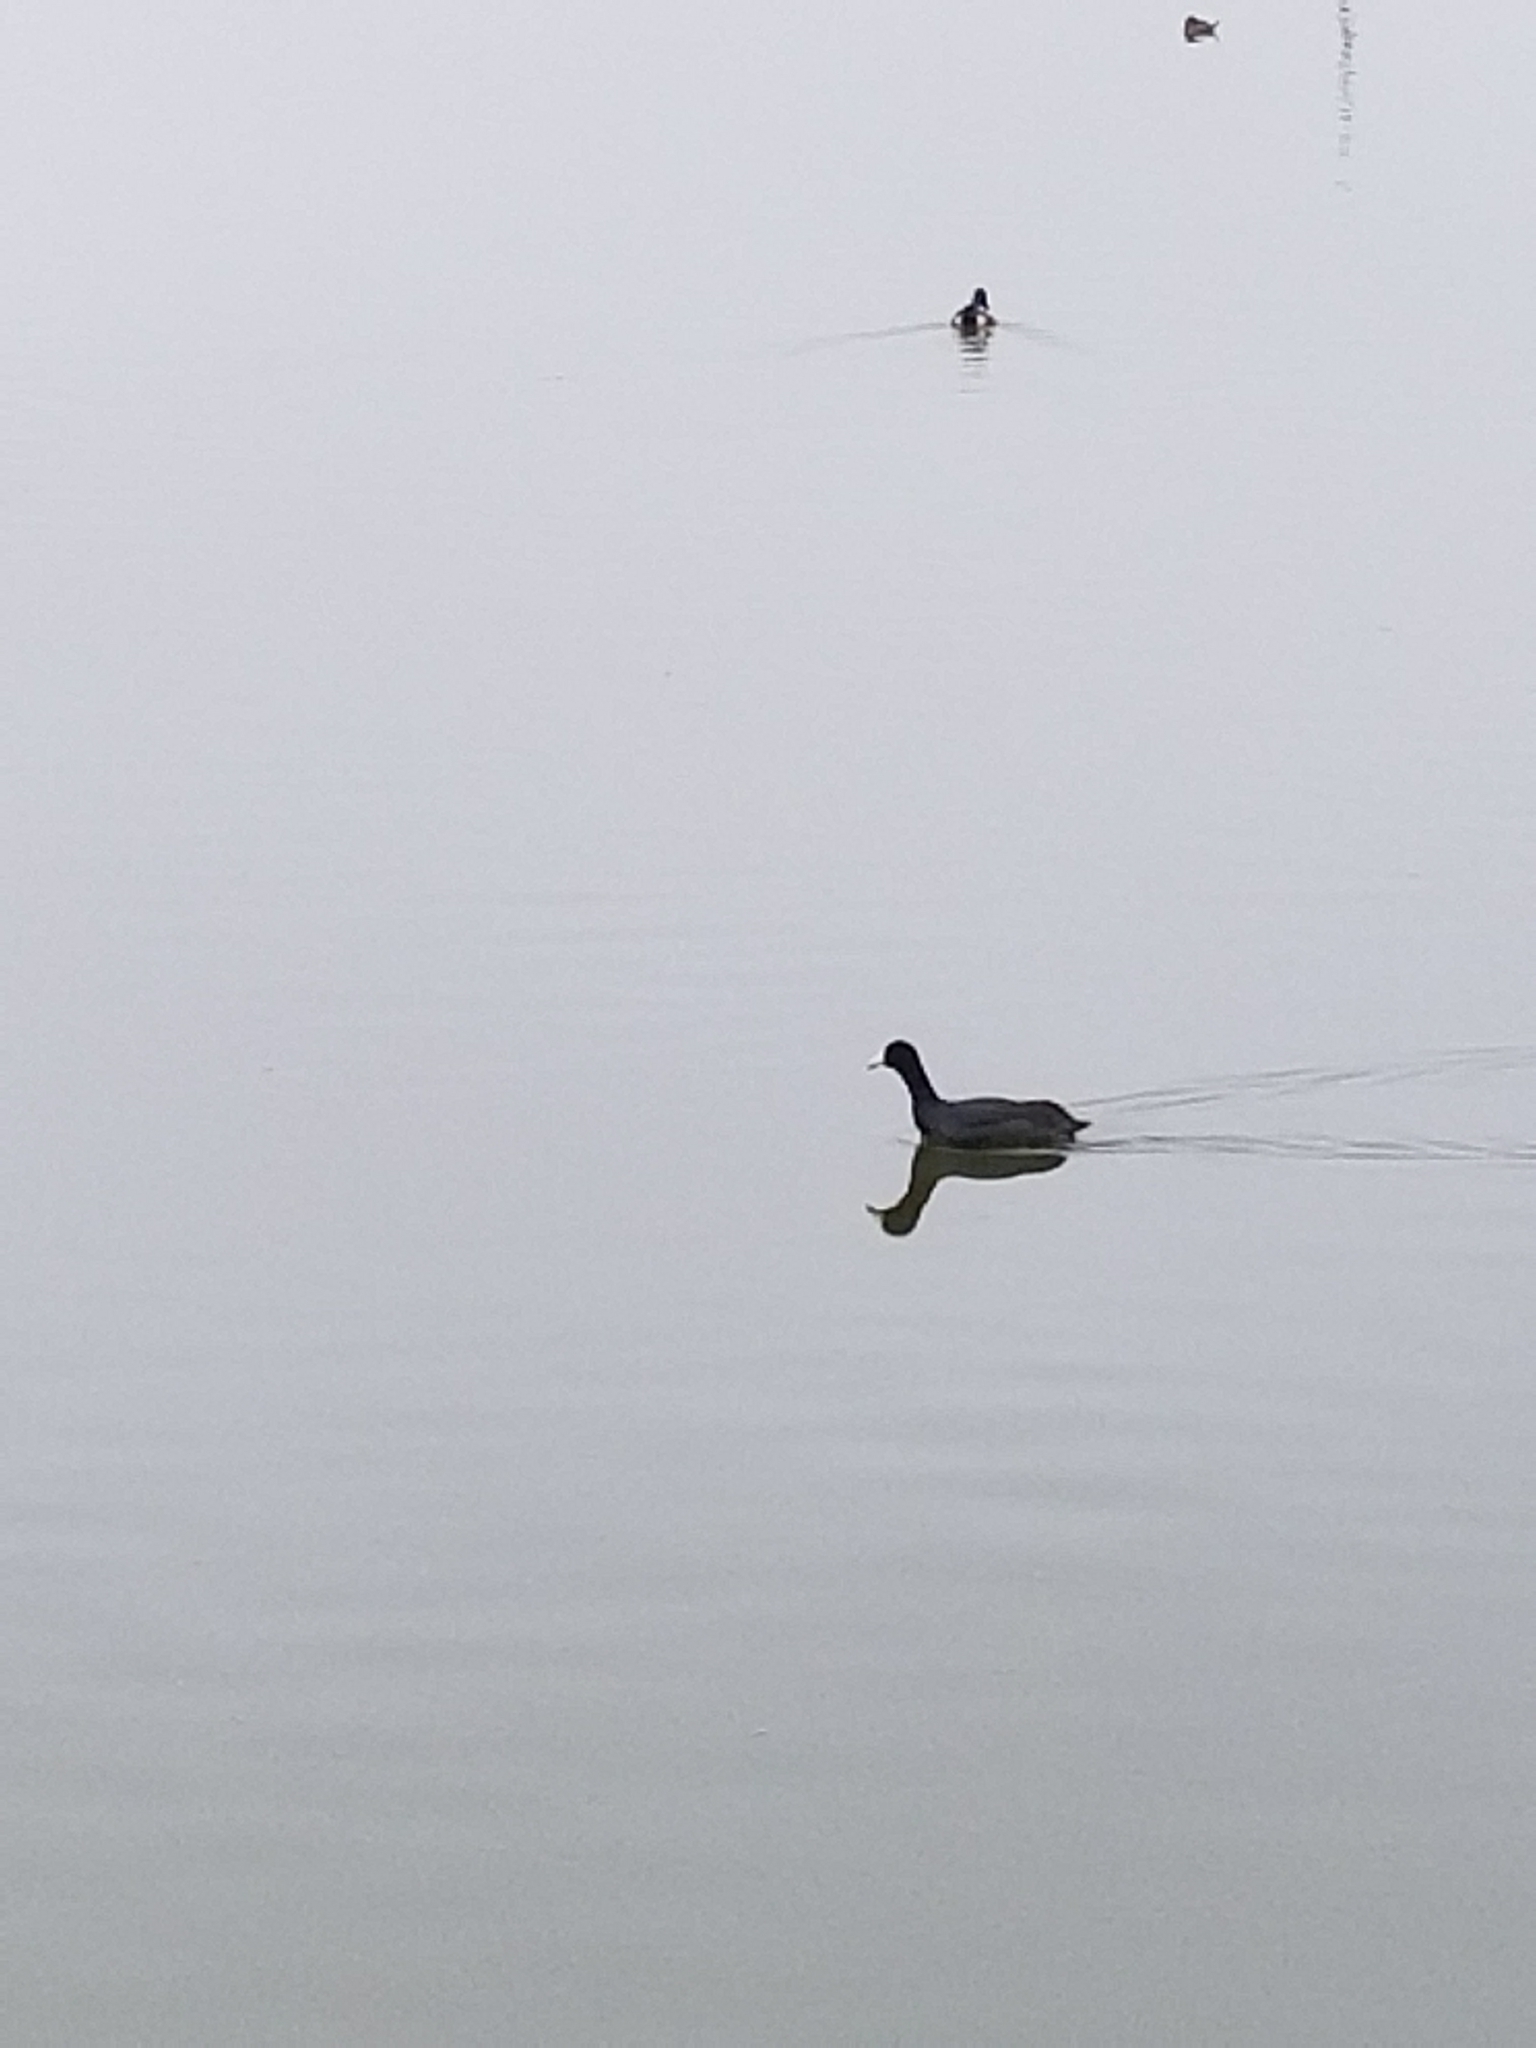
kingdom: Animalia
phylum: Chordata
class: Aves
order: Gruiformes
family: Rallidae
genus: Fulica
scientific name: Fulica americana
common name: American coot
